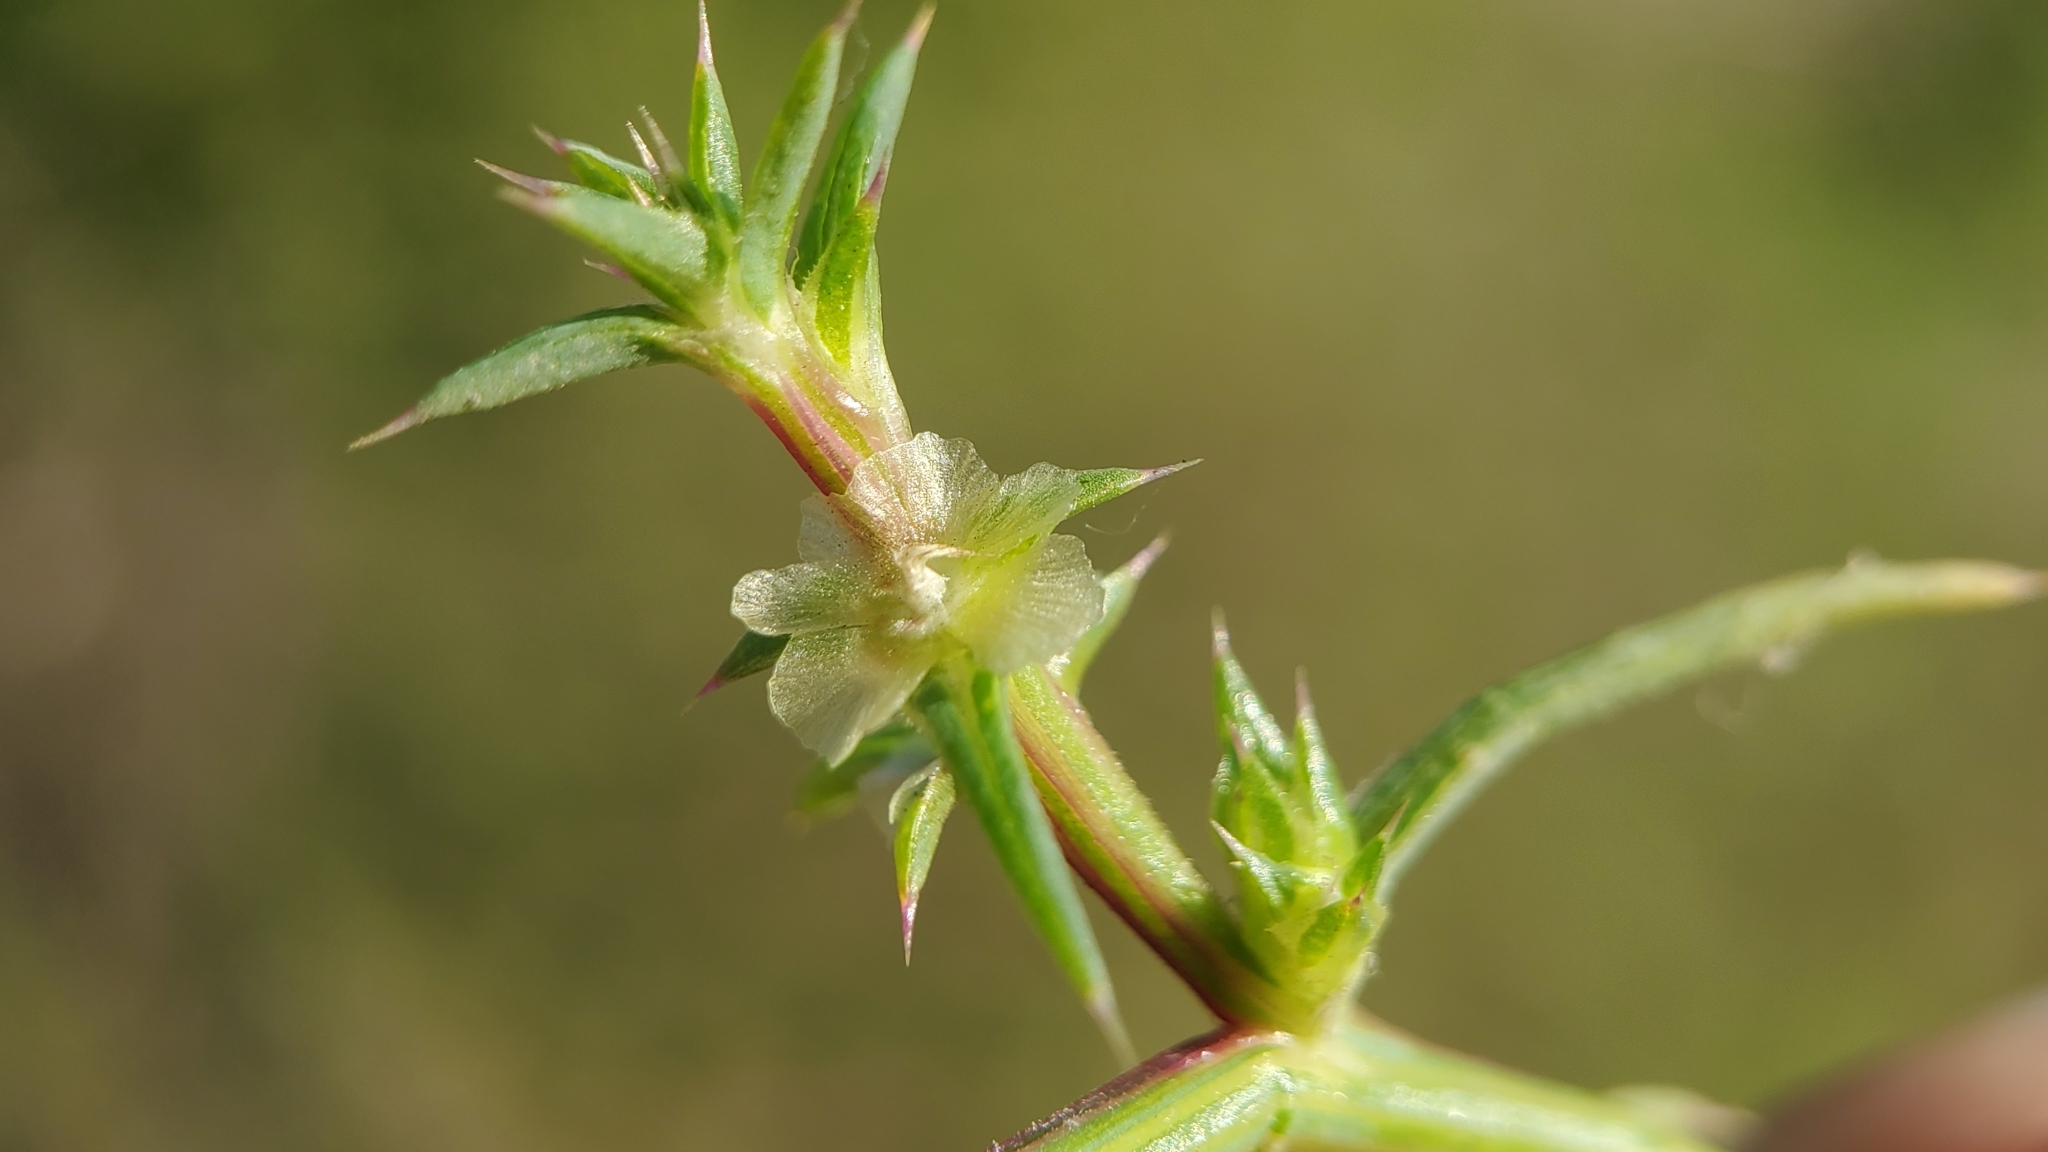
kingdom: Plantae
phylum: Tracheophyta
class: Magnoliopsida
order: Caryophyllales
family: Amaranthaceae
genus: Salsola
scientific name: Salsola australis
